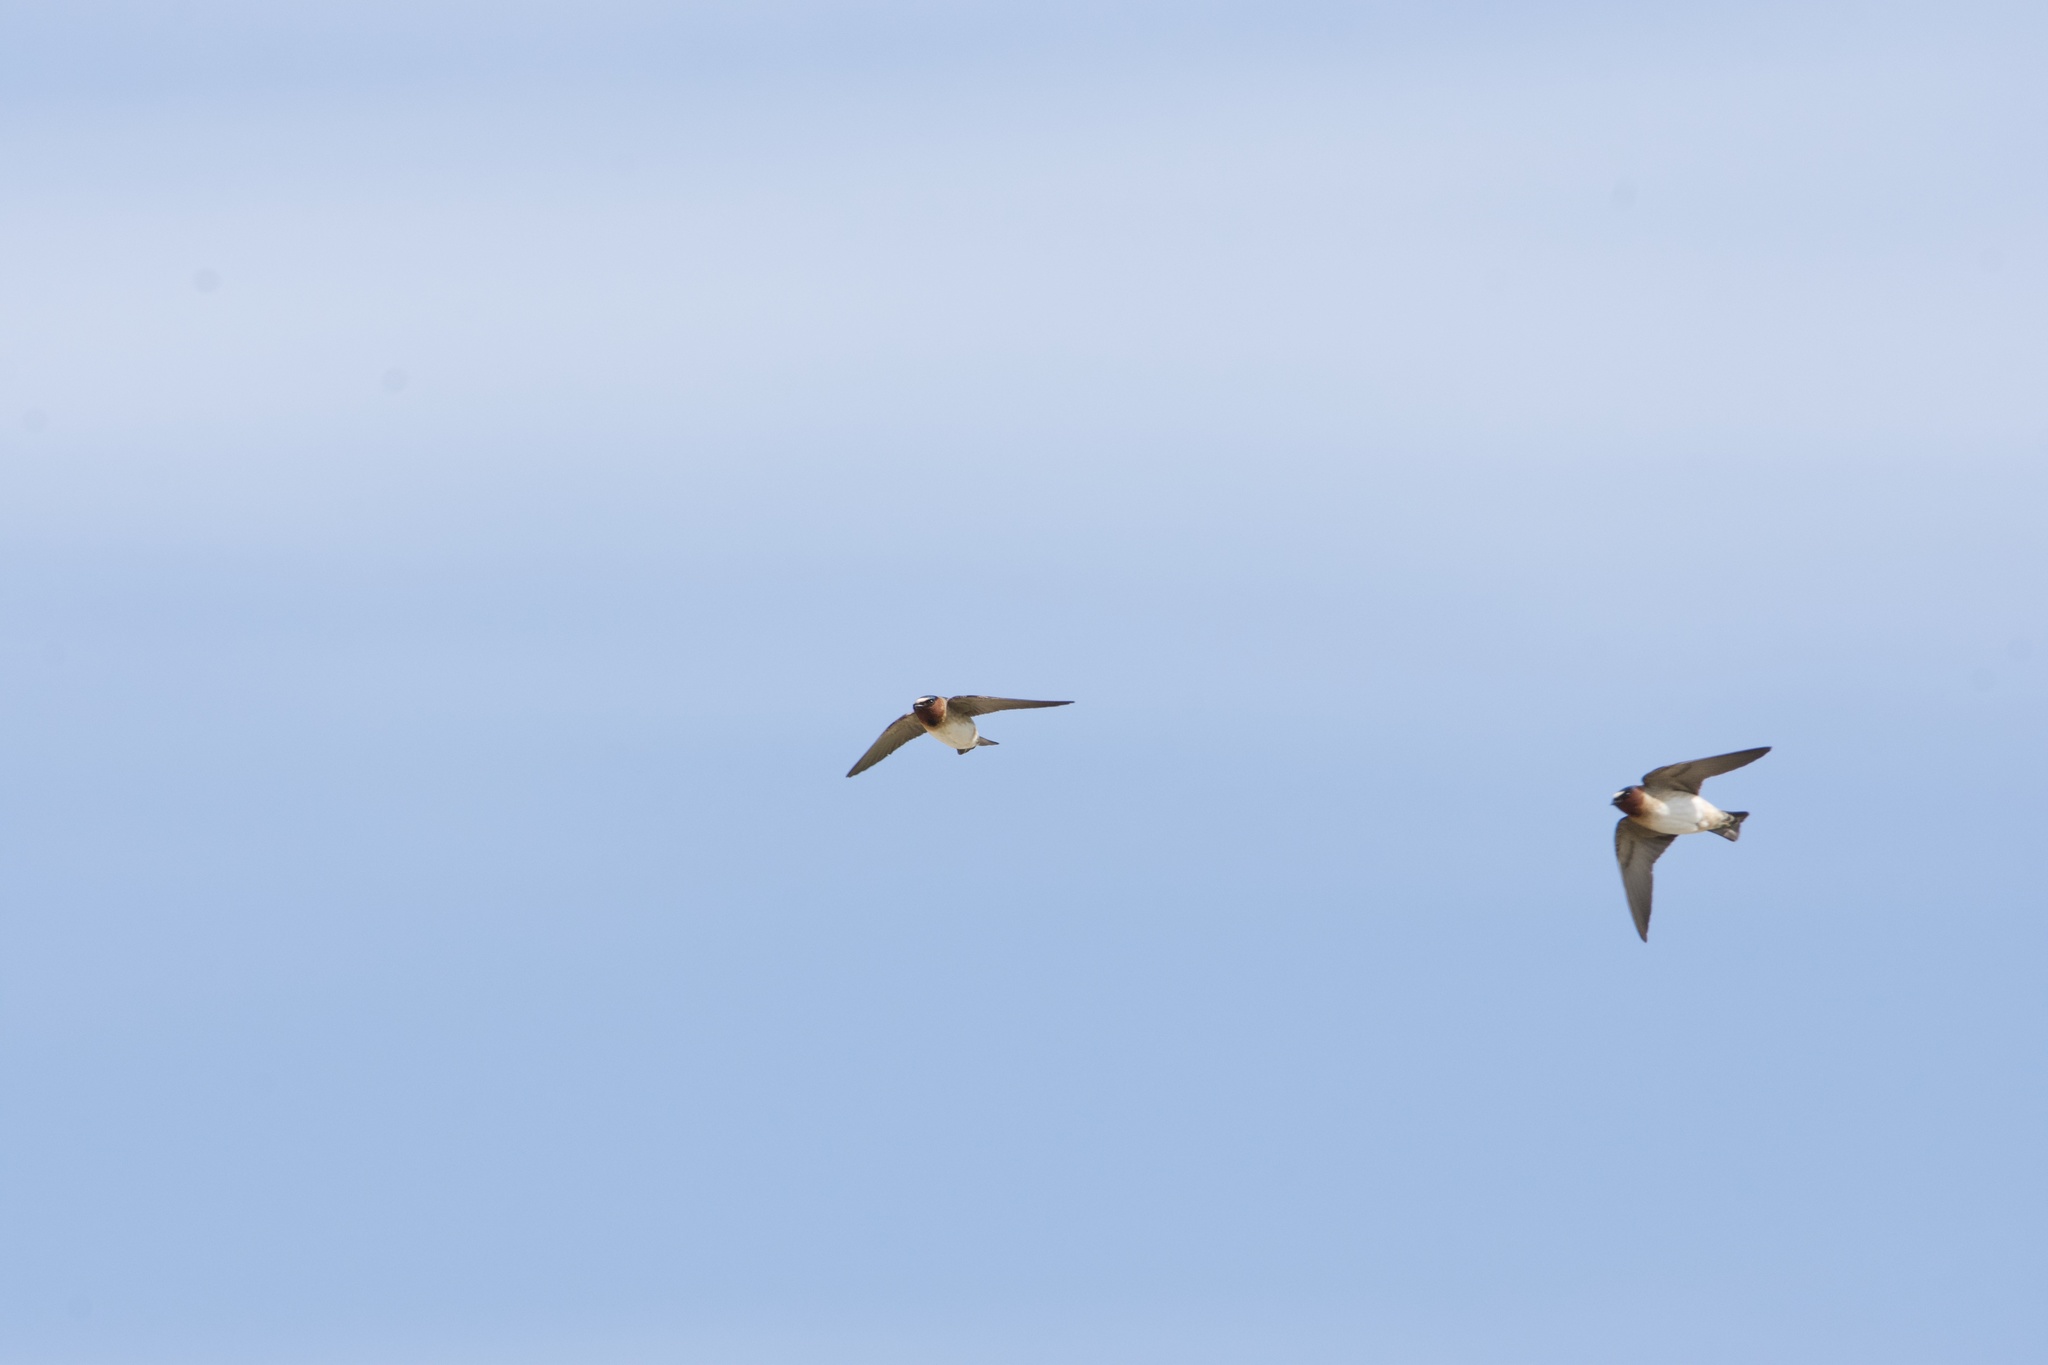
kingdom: Animalia
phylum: Chordata
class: Aves
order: Passeriformes
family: Hirundinidae
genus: Petrochelidon
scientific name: Petrochelidon pyrrhonota
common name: American cliff swallow
